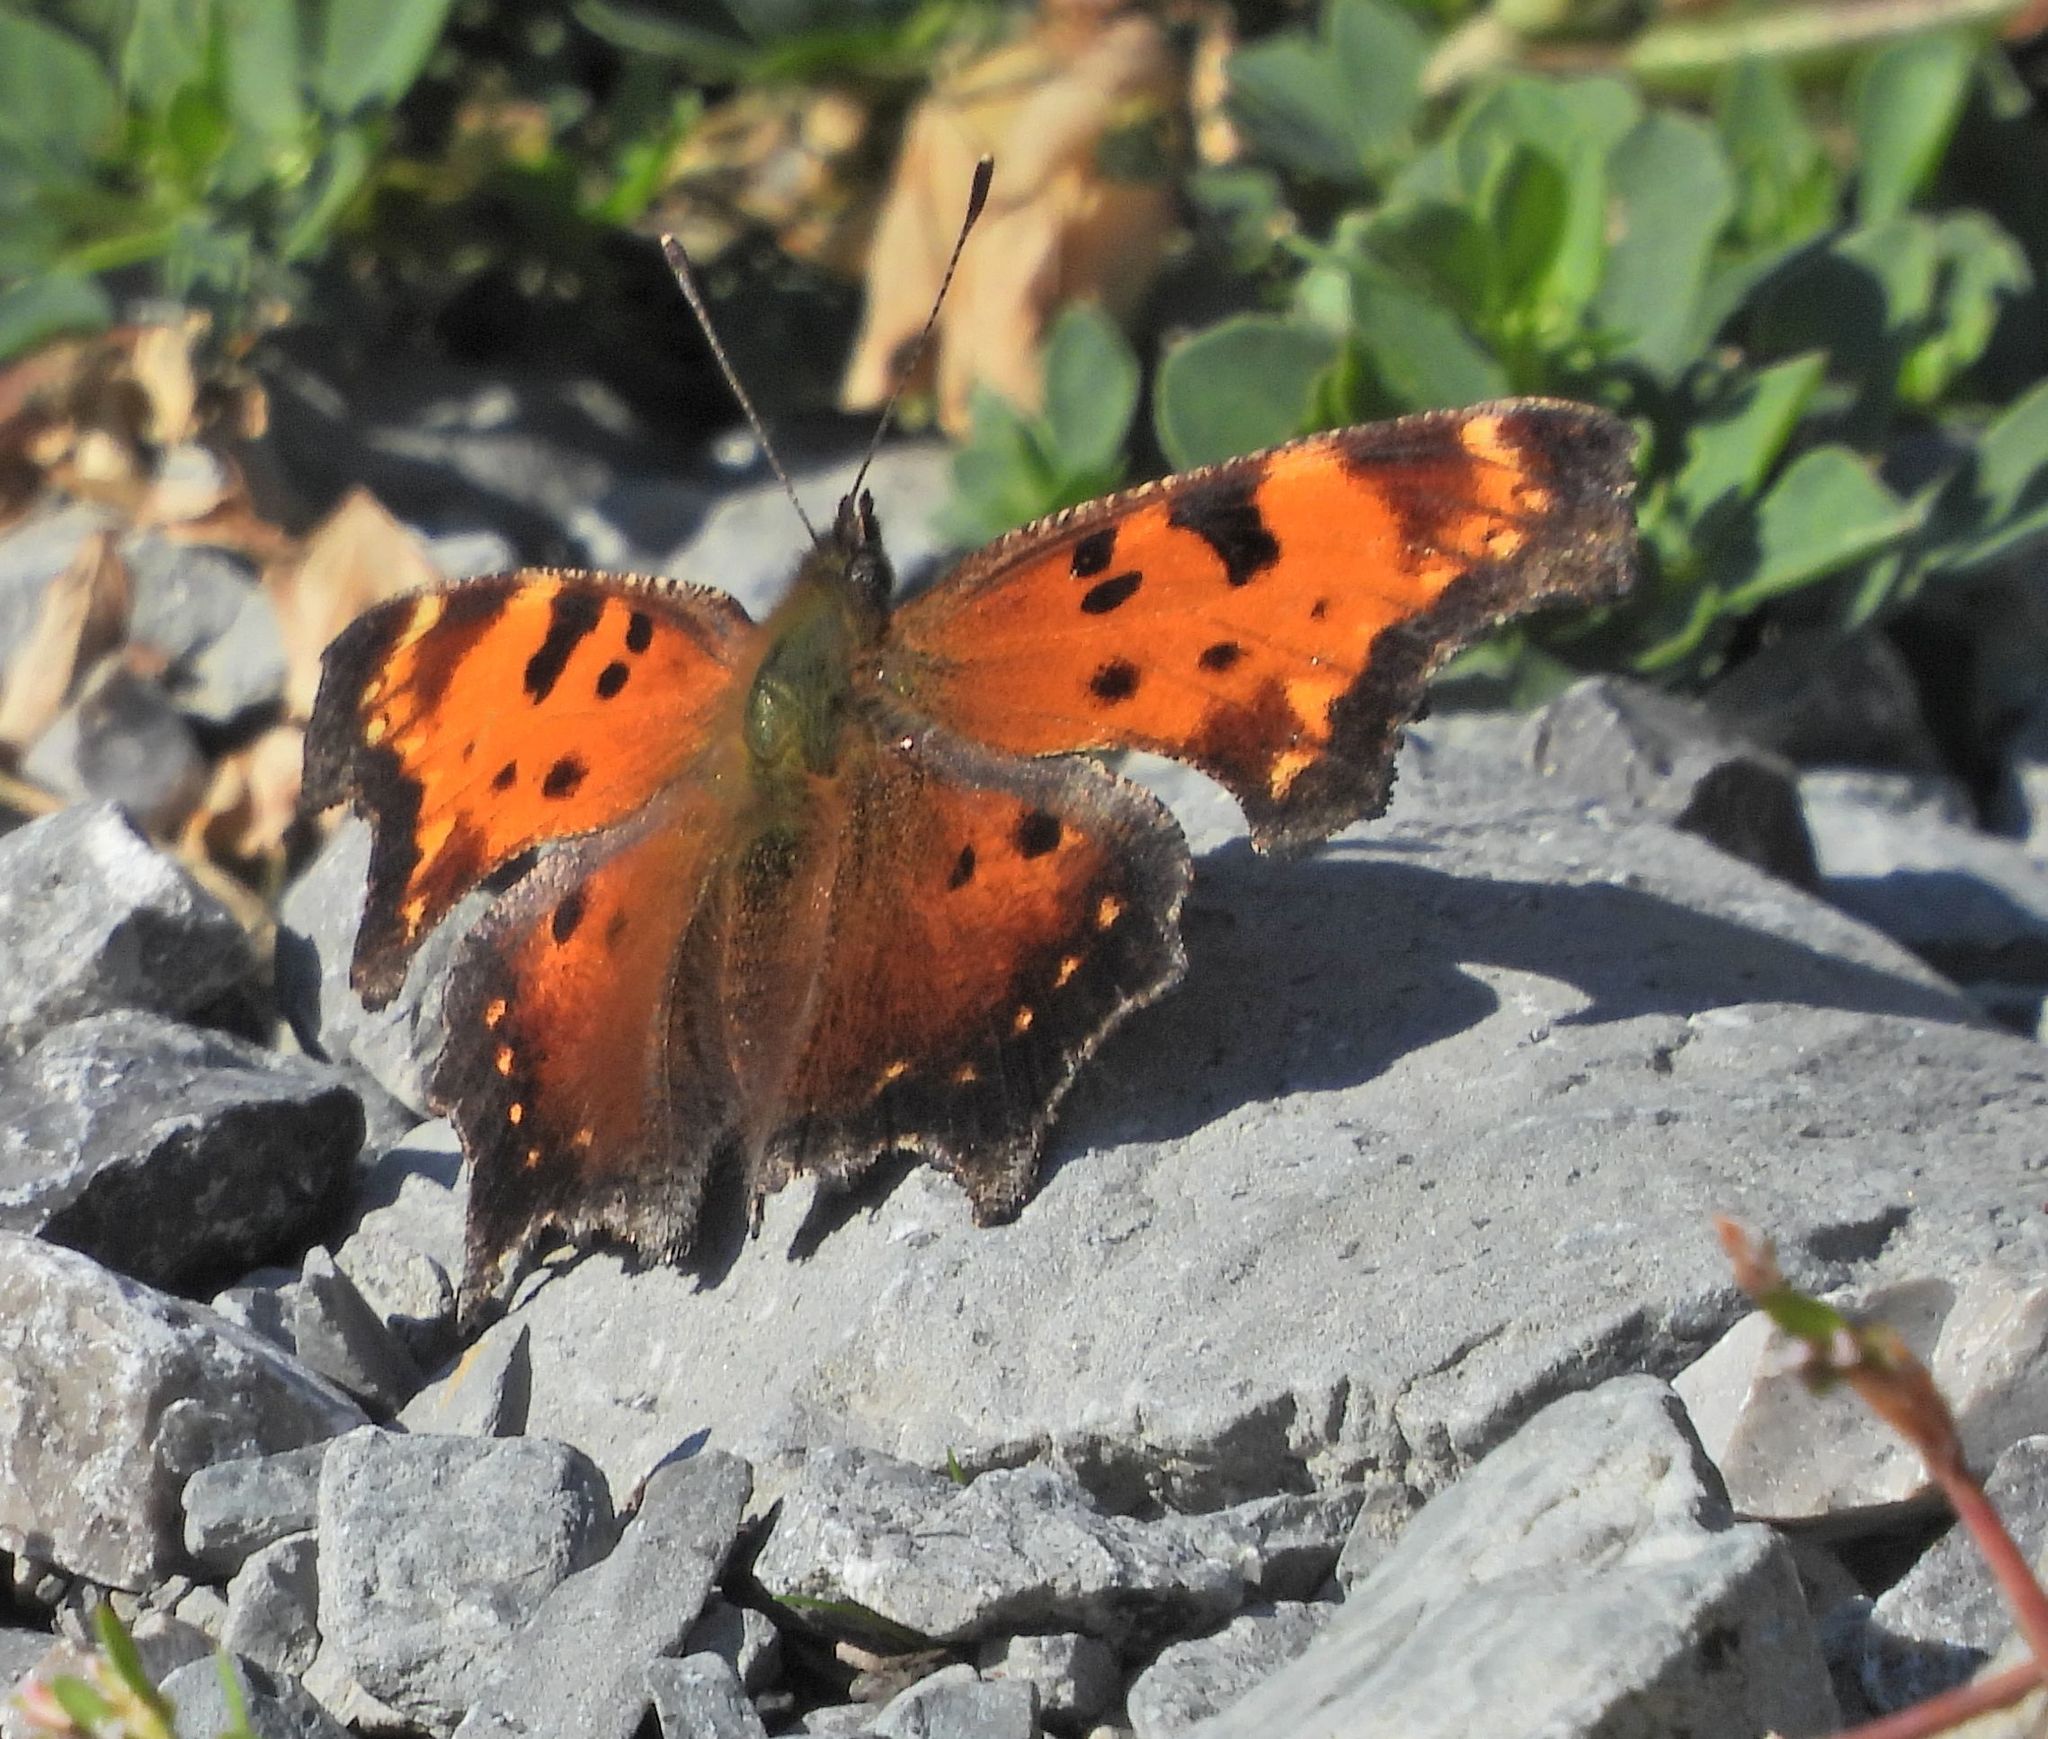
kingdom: Animalia
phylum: Arthropoda
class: Insecta
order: Lepidoptera
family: Nymphalidae
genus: Polygonia
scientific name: Polygonia progne
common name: Gray comma
